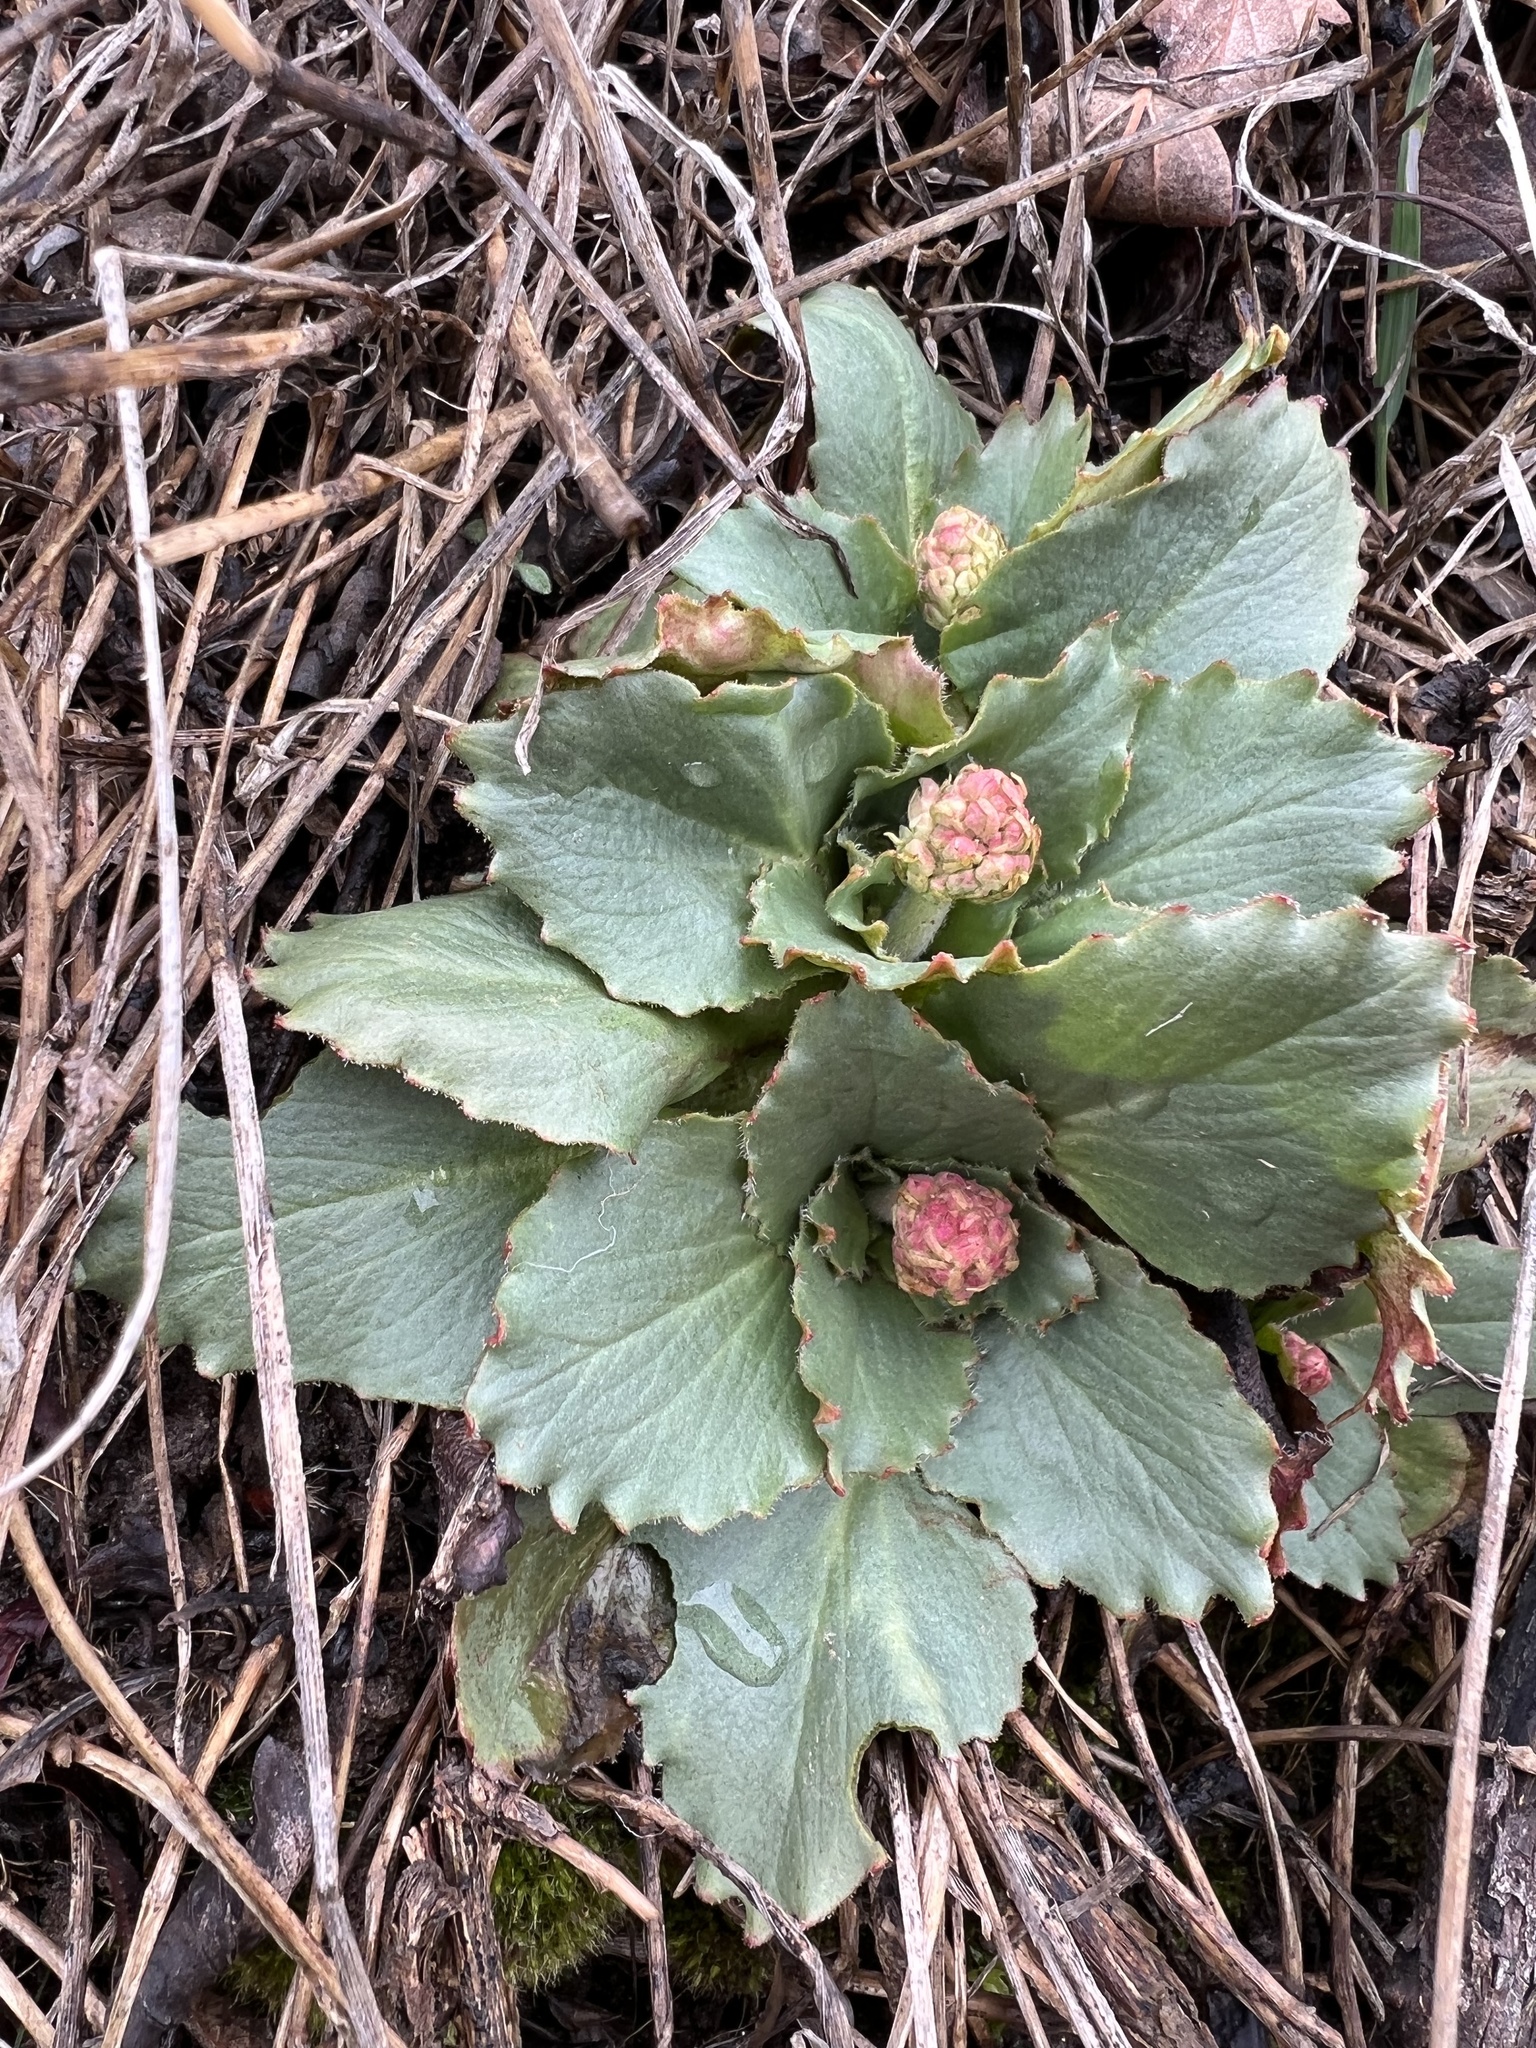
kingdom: Plantae
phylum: Tracheophyta
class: Magnoliopsida
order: Saxifragales
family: Saxifragaceae
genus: Micranthes
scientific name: Micranthes rhomboidea
